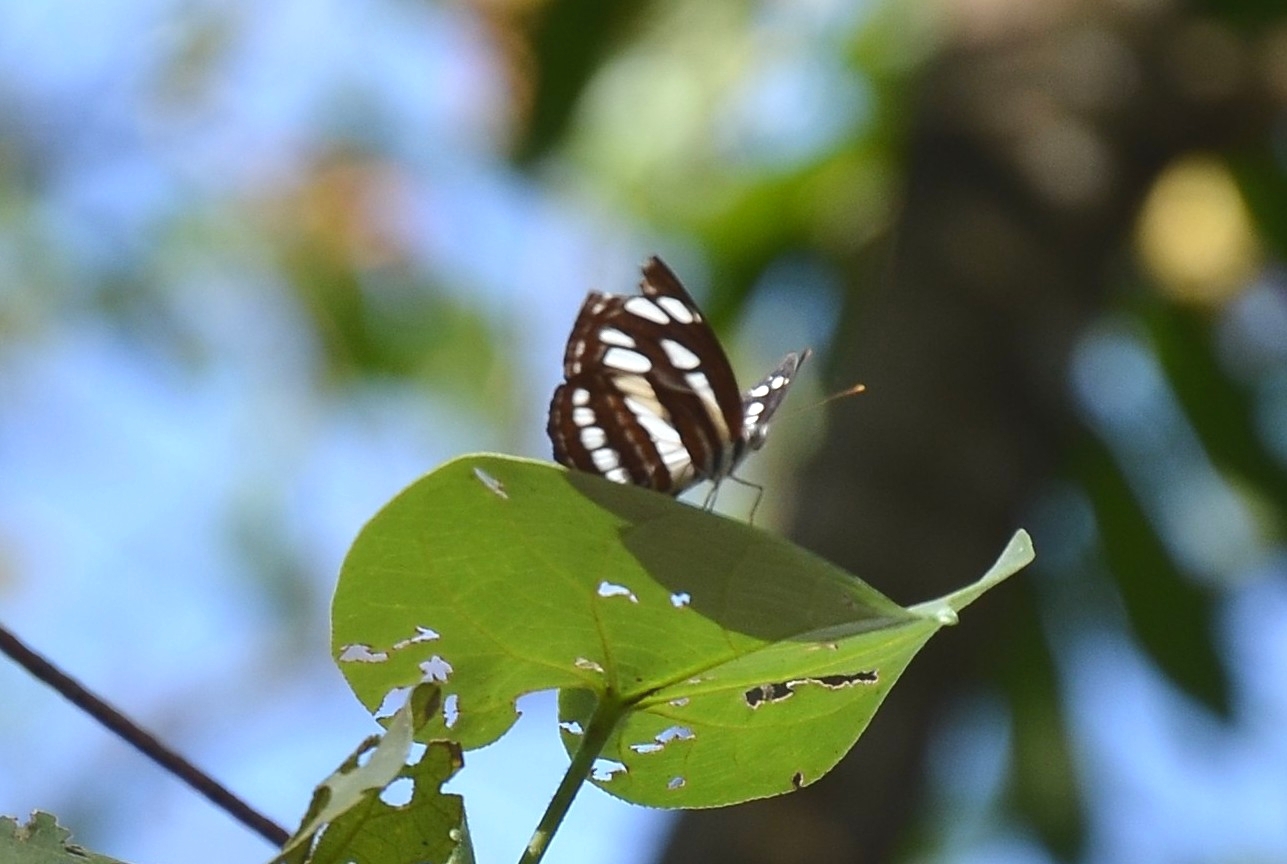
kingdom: Animalia
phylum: Arthropoda
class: Insecta
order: Lepidoptera
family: Nymphalidae
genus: Neptis
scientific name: Neptis hylas
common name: Common sailer
